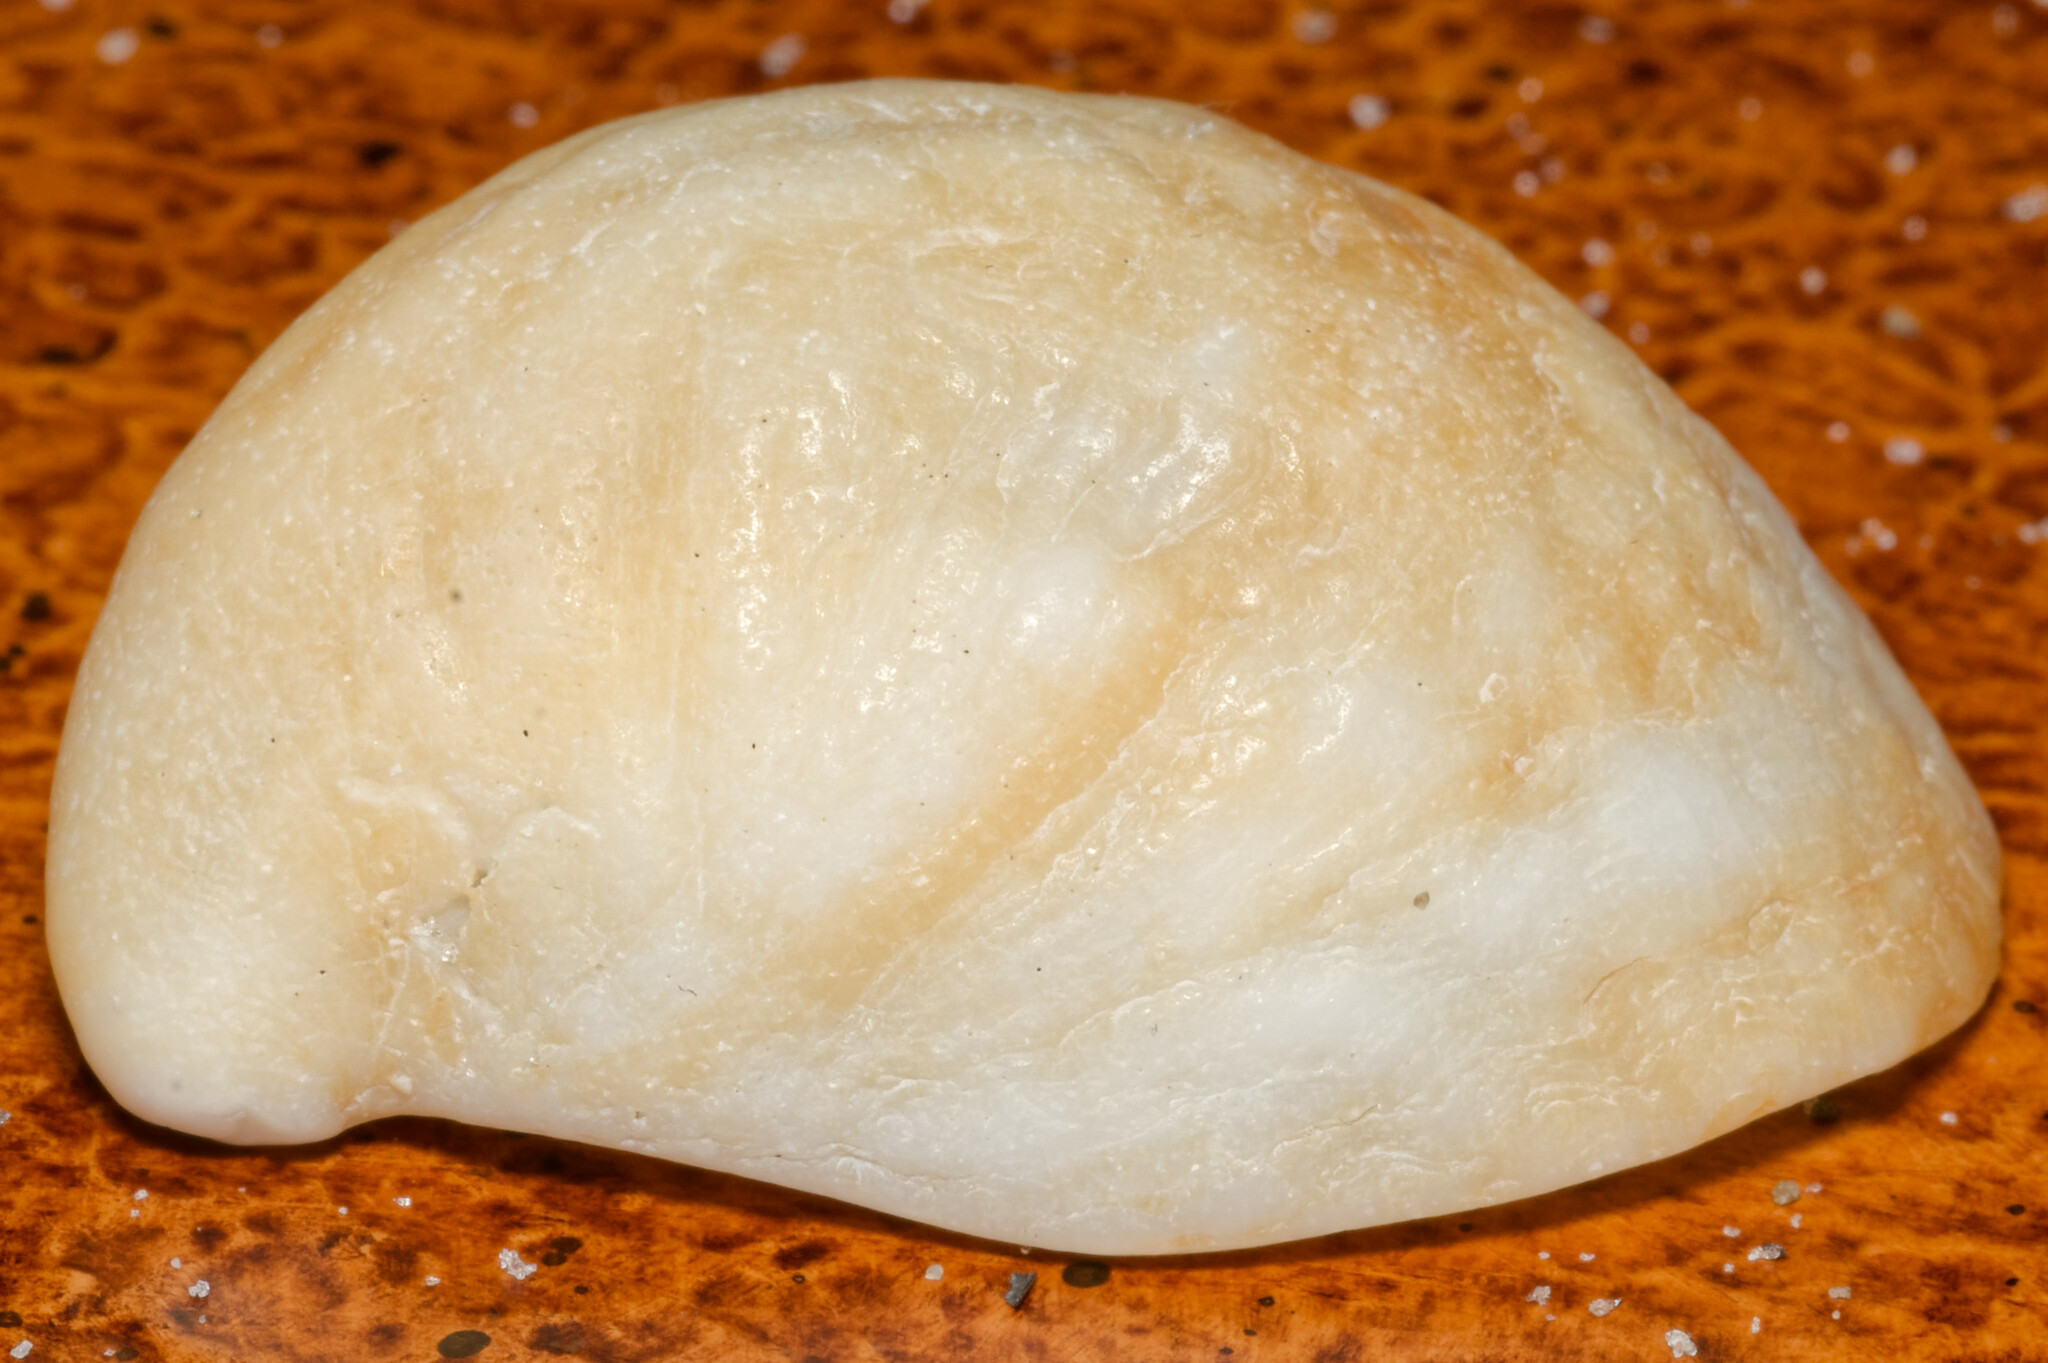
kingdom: Animalia
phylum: Mollusca
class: Gastropoda
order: Littorinimorpha
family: Calyptraeidae
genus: Crepidula
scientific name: Crepidula fornicata
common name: Slipper limpet
